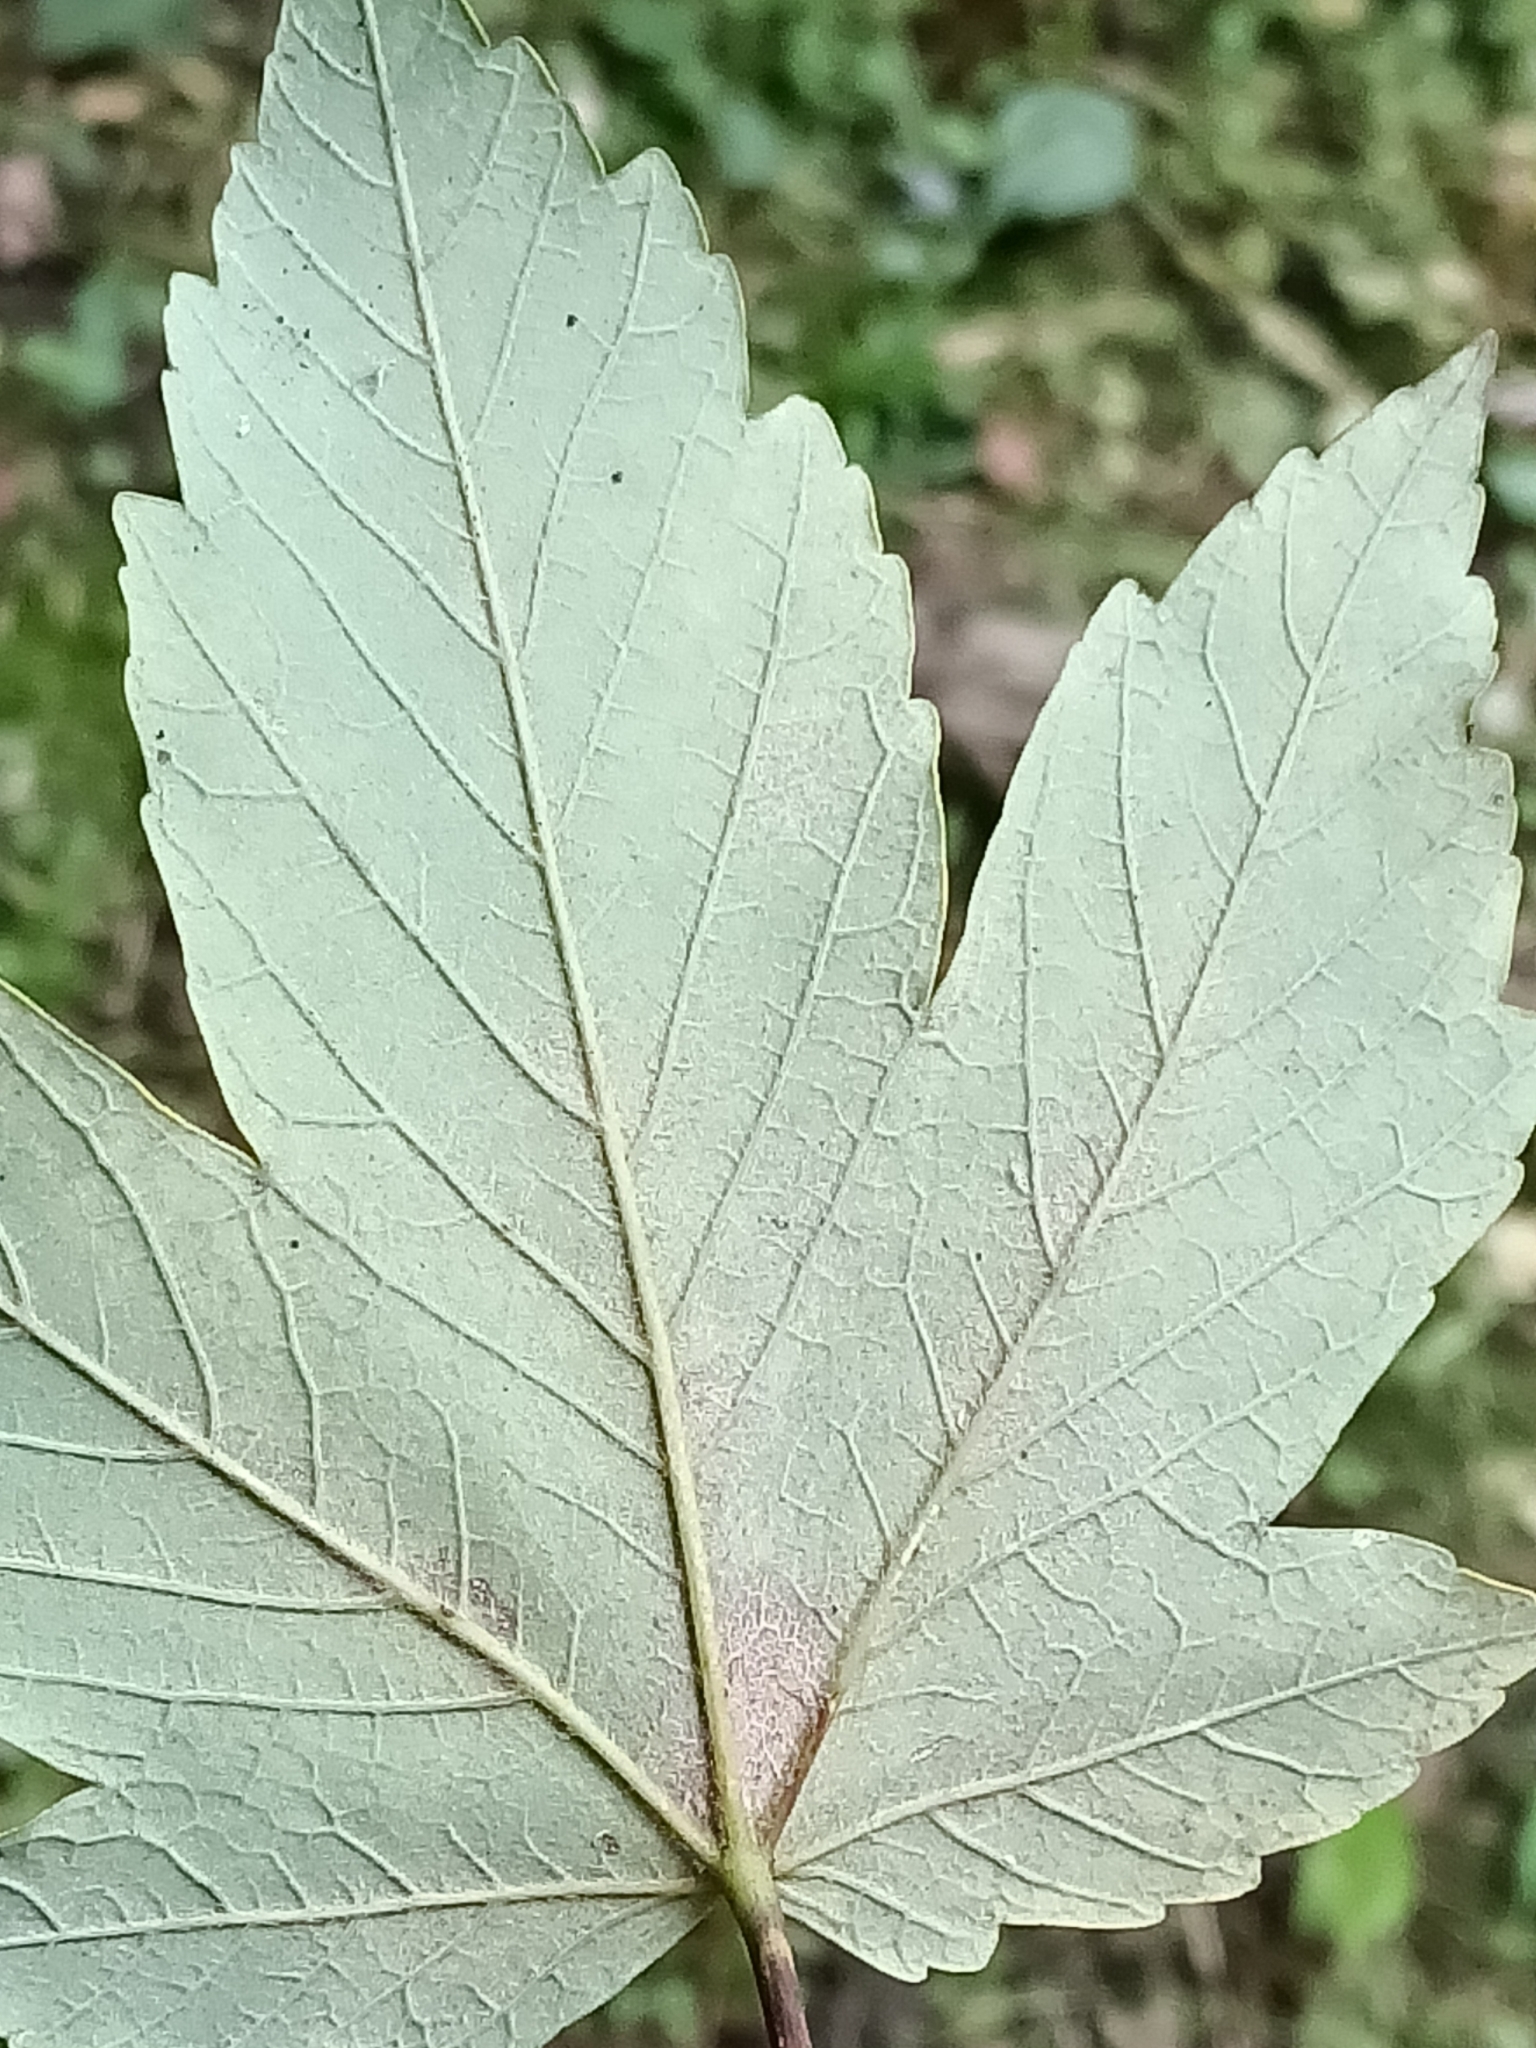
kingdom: Plantae
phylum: Tracheophyta
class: Magnoliopsida
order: Sapindales
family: Sapindaceae
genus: Acer
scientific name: Acer pseudoplatanus
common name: Sycamore
